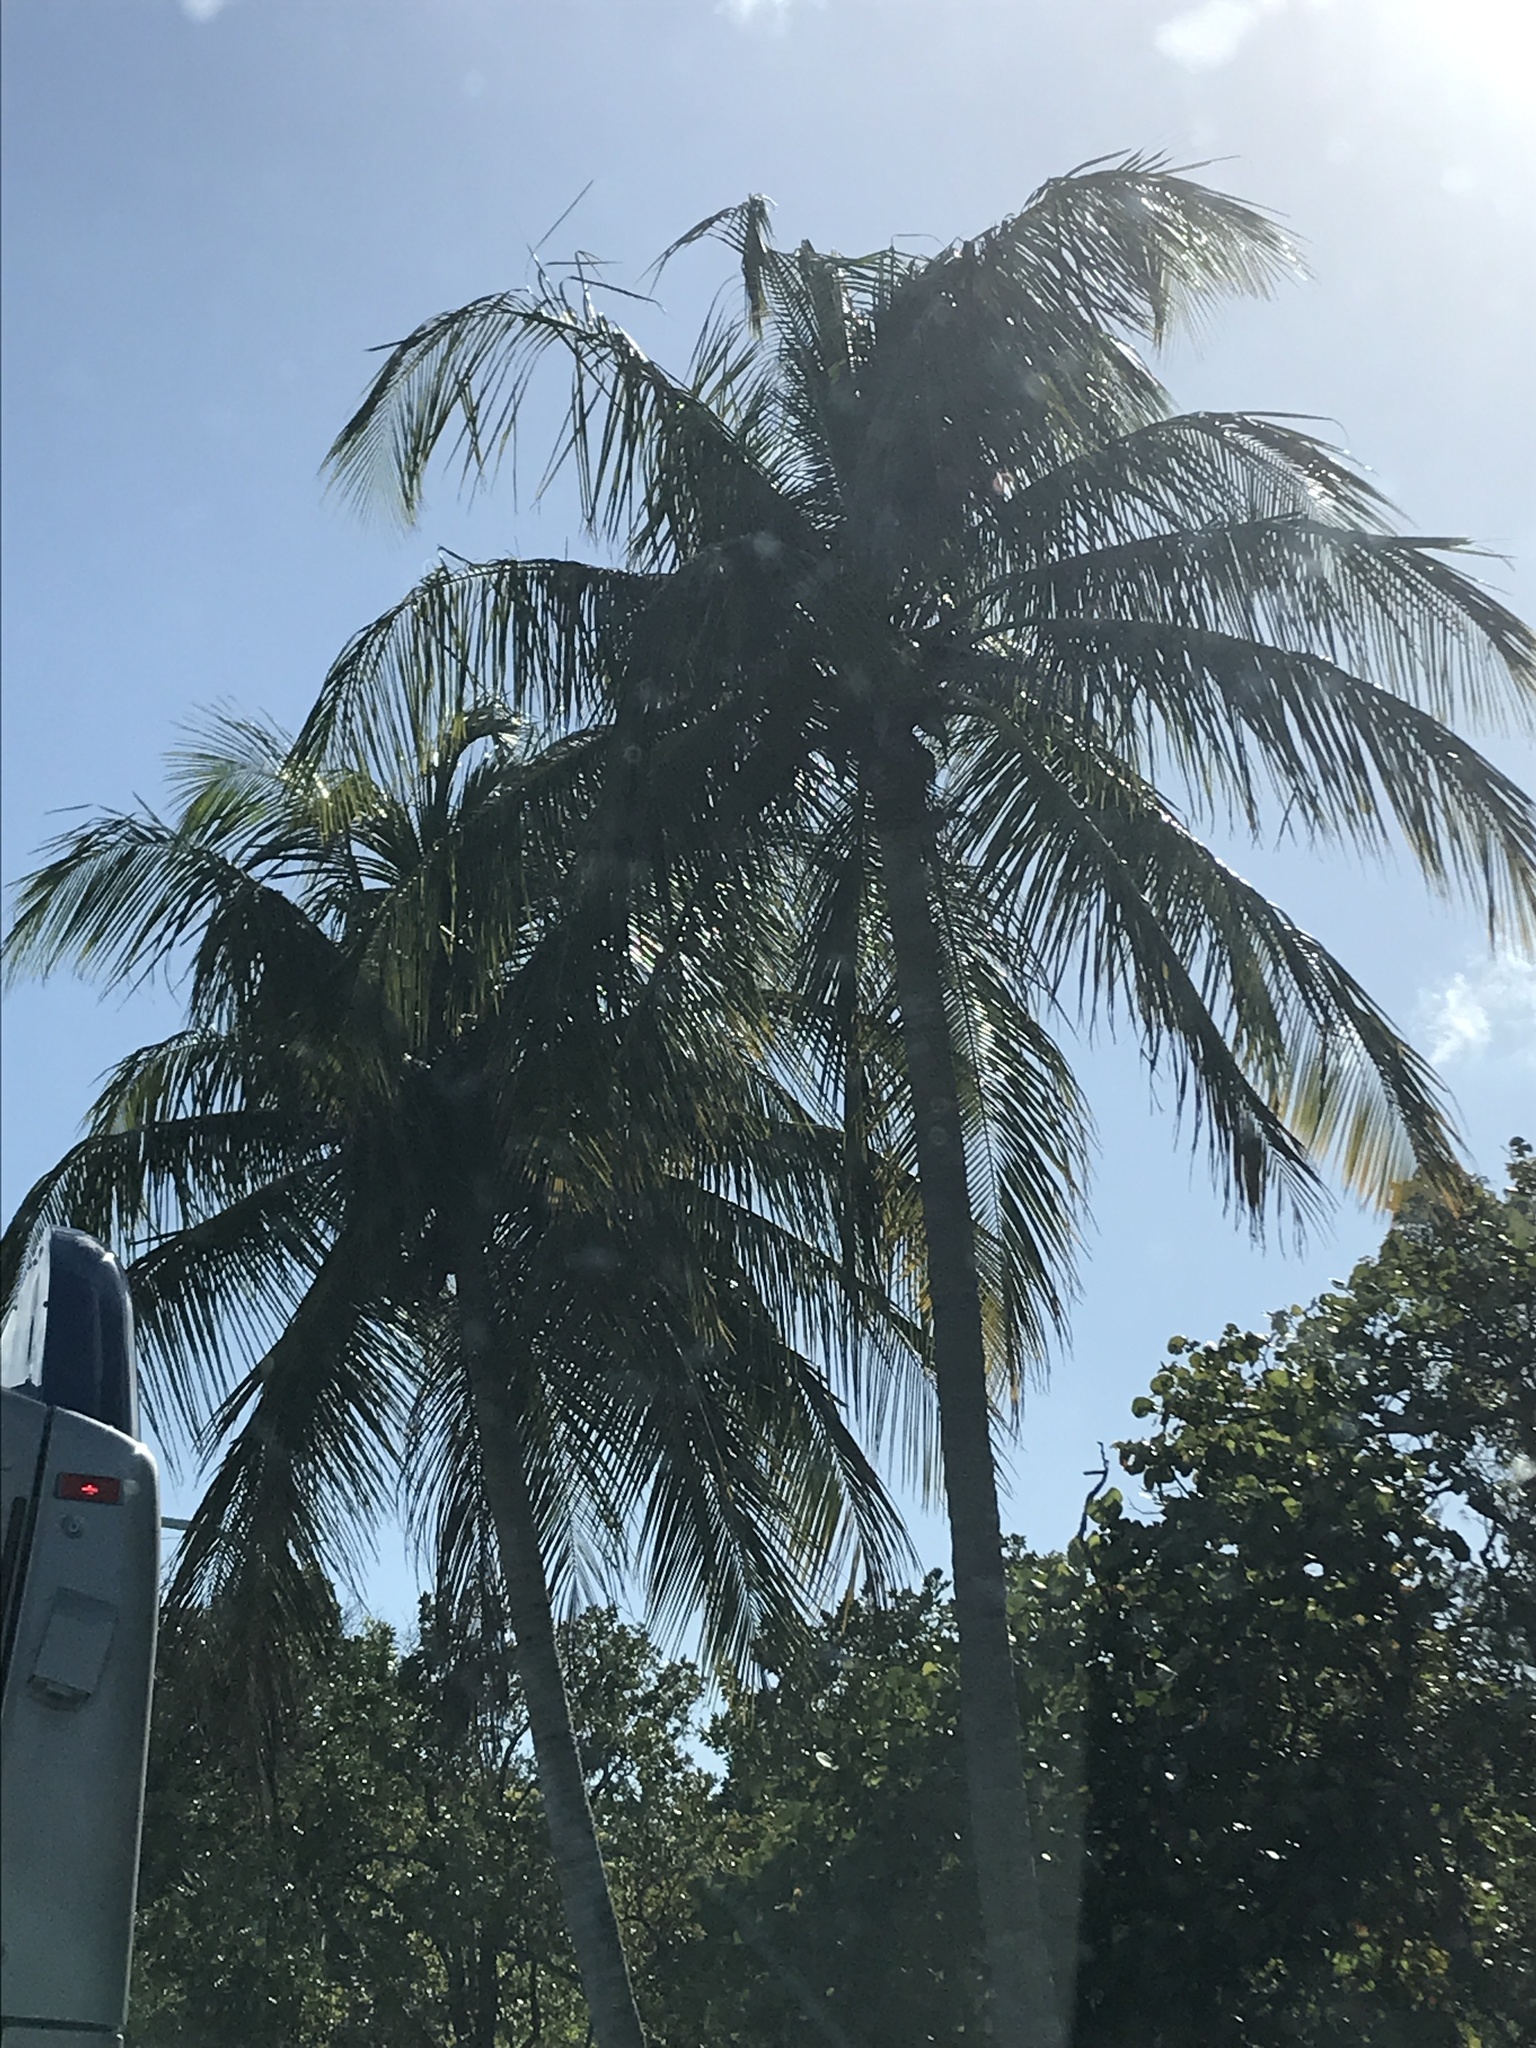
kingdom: Plantae
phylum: Tracheophyta
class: Liliopsida
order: Arecales
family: Arecaceae
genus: Cocos
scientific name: Cocos nucifera
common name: Coconut palm
